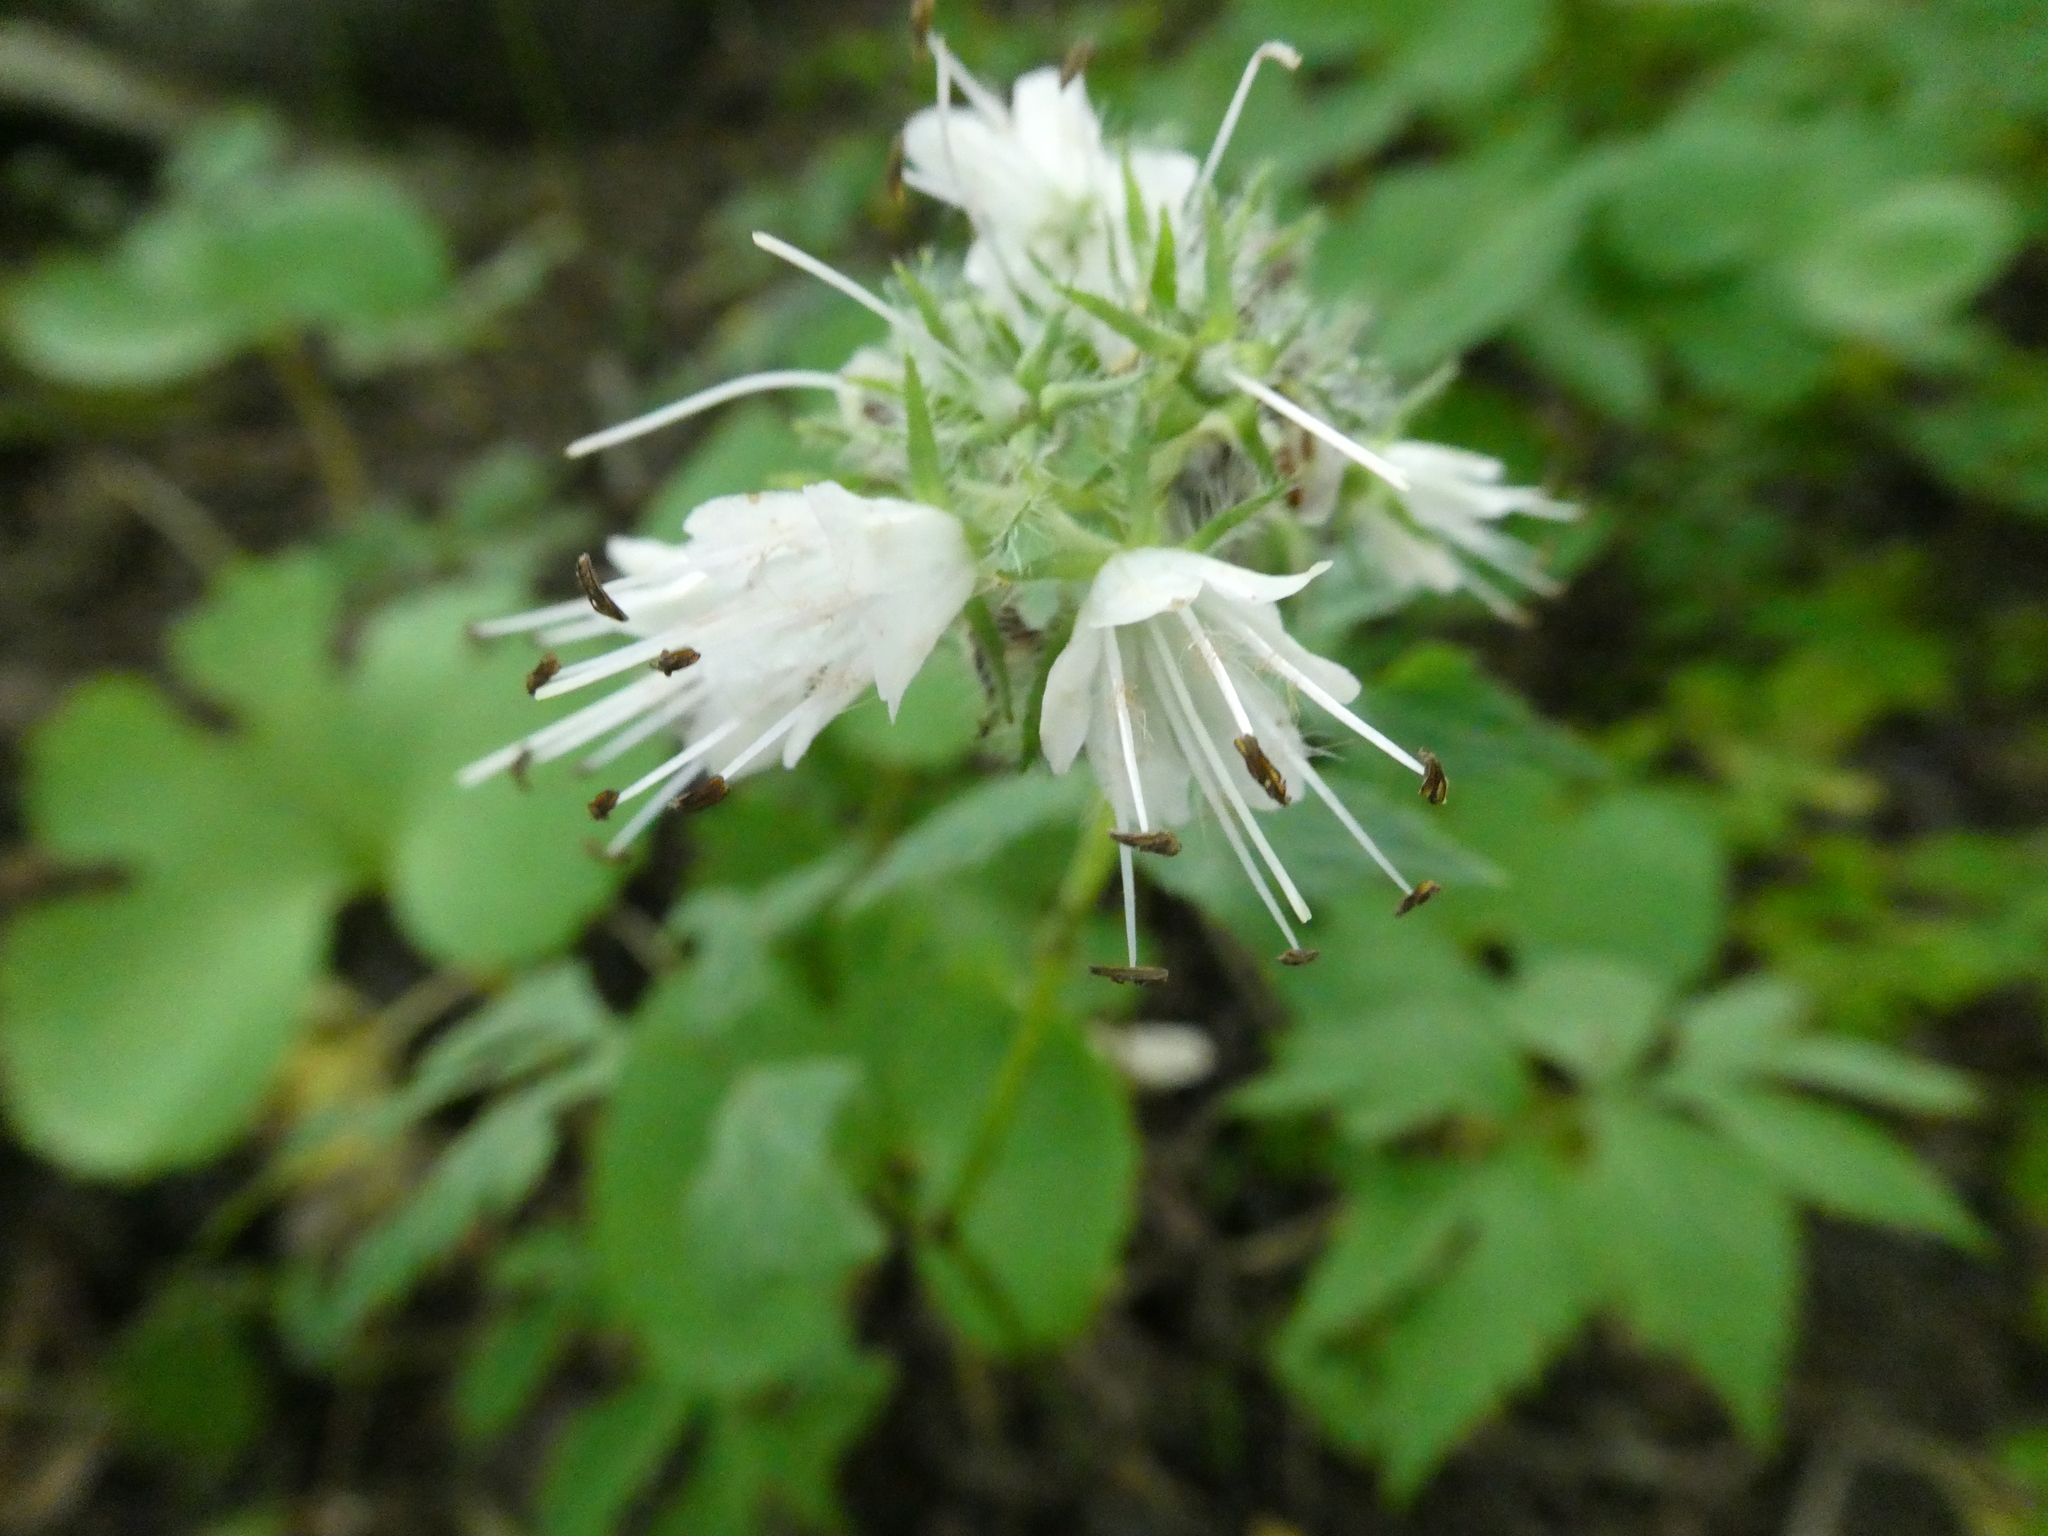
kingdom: Plantae
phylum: Tracheophyta
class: Magnoliopsida
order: Boraginales
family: Hydrophyllaceae
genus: Hydrophyllum
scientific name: Hydrophyllum virginianum
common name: Virginia waterleaf
